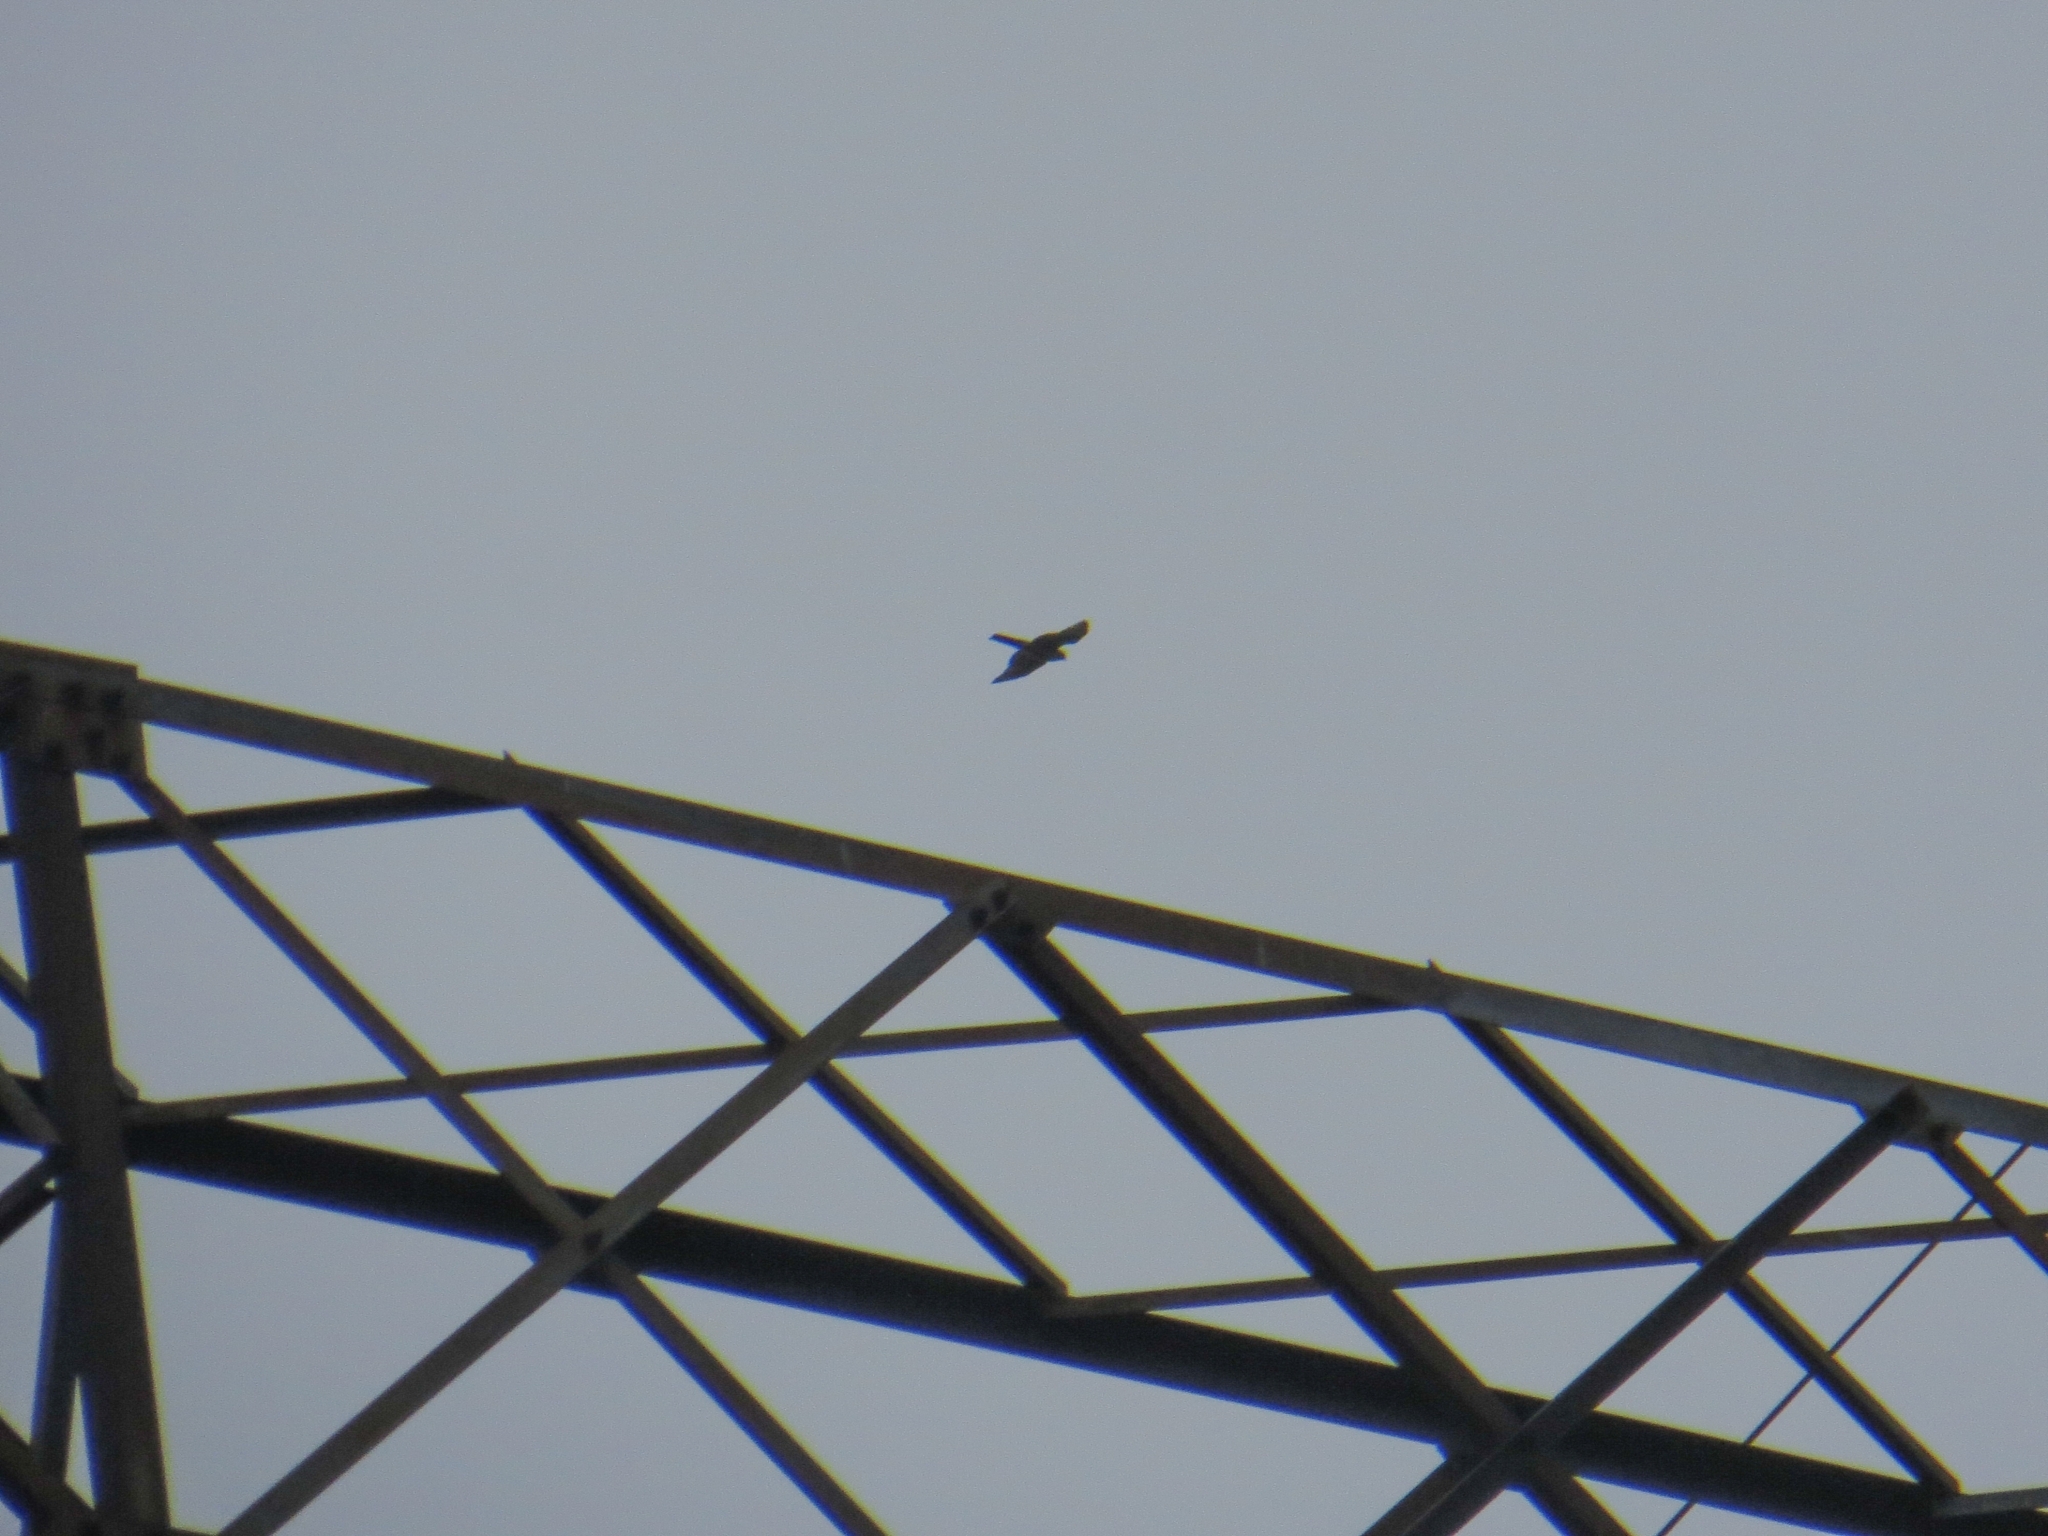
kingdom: Animalia
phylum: Chordata
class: Aves
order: Accipitriformes
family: Accipitridae
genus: Accipiter
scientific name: Accipiter nisus
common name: Eurasian sparrowhawk
